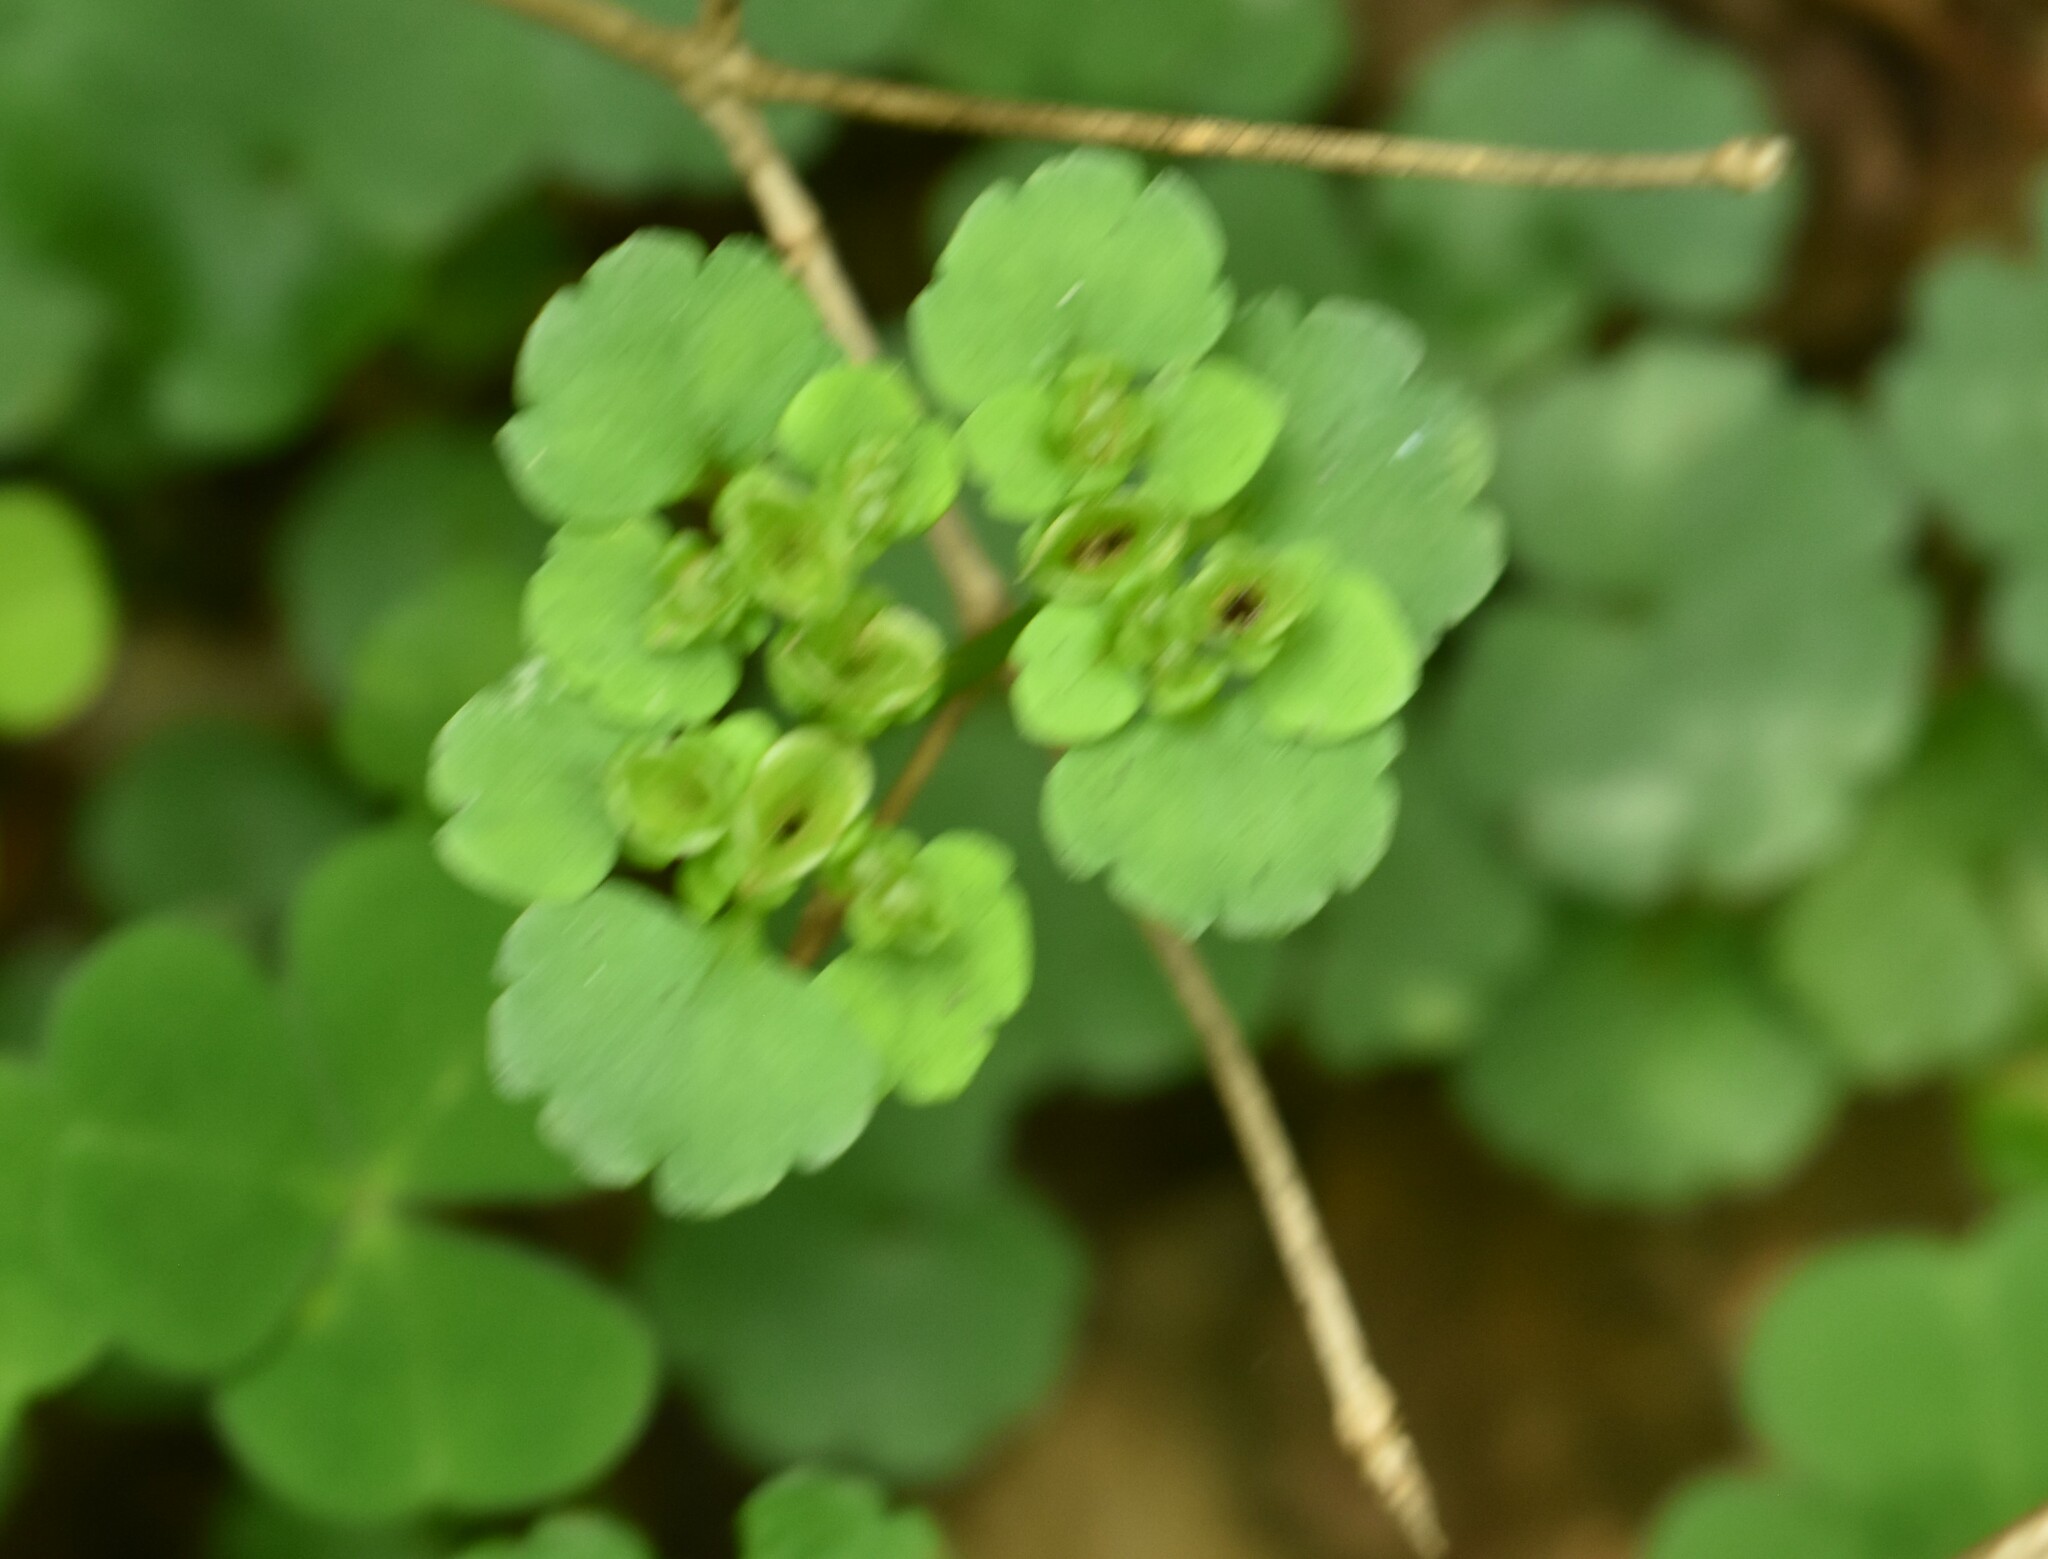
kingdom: Plantae
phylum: Tracheophyta
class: Magnoliopsida
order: Saxifragales
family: Saxifragaceae
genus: Chrysosplenium
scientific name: Chrysosplenium alternifolium
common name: Alternate-leaved golden-saxifrage
